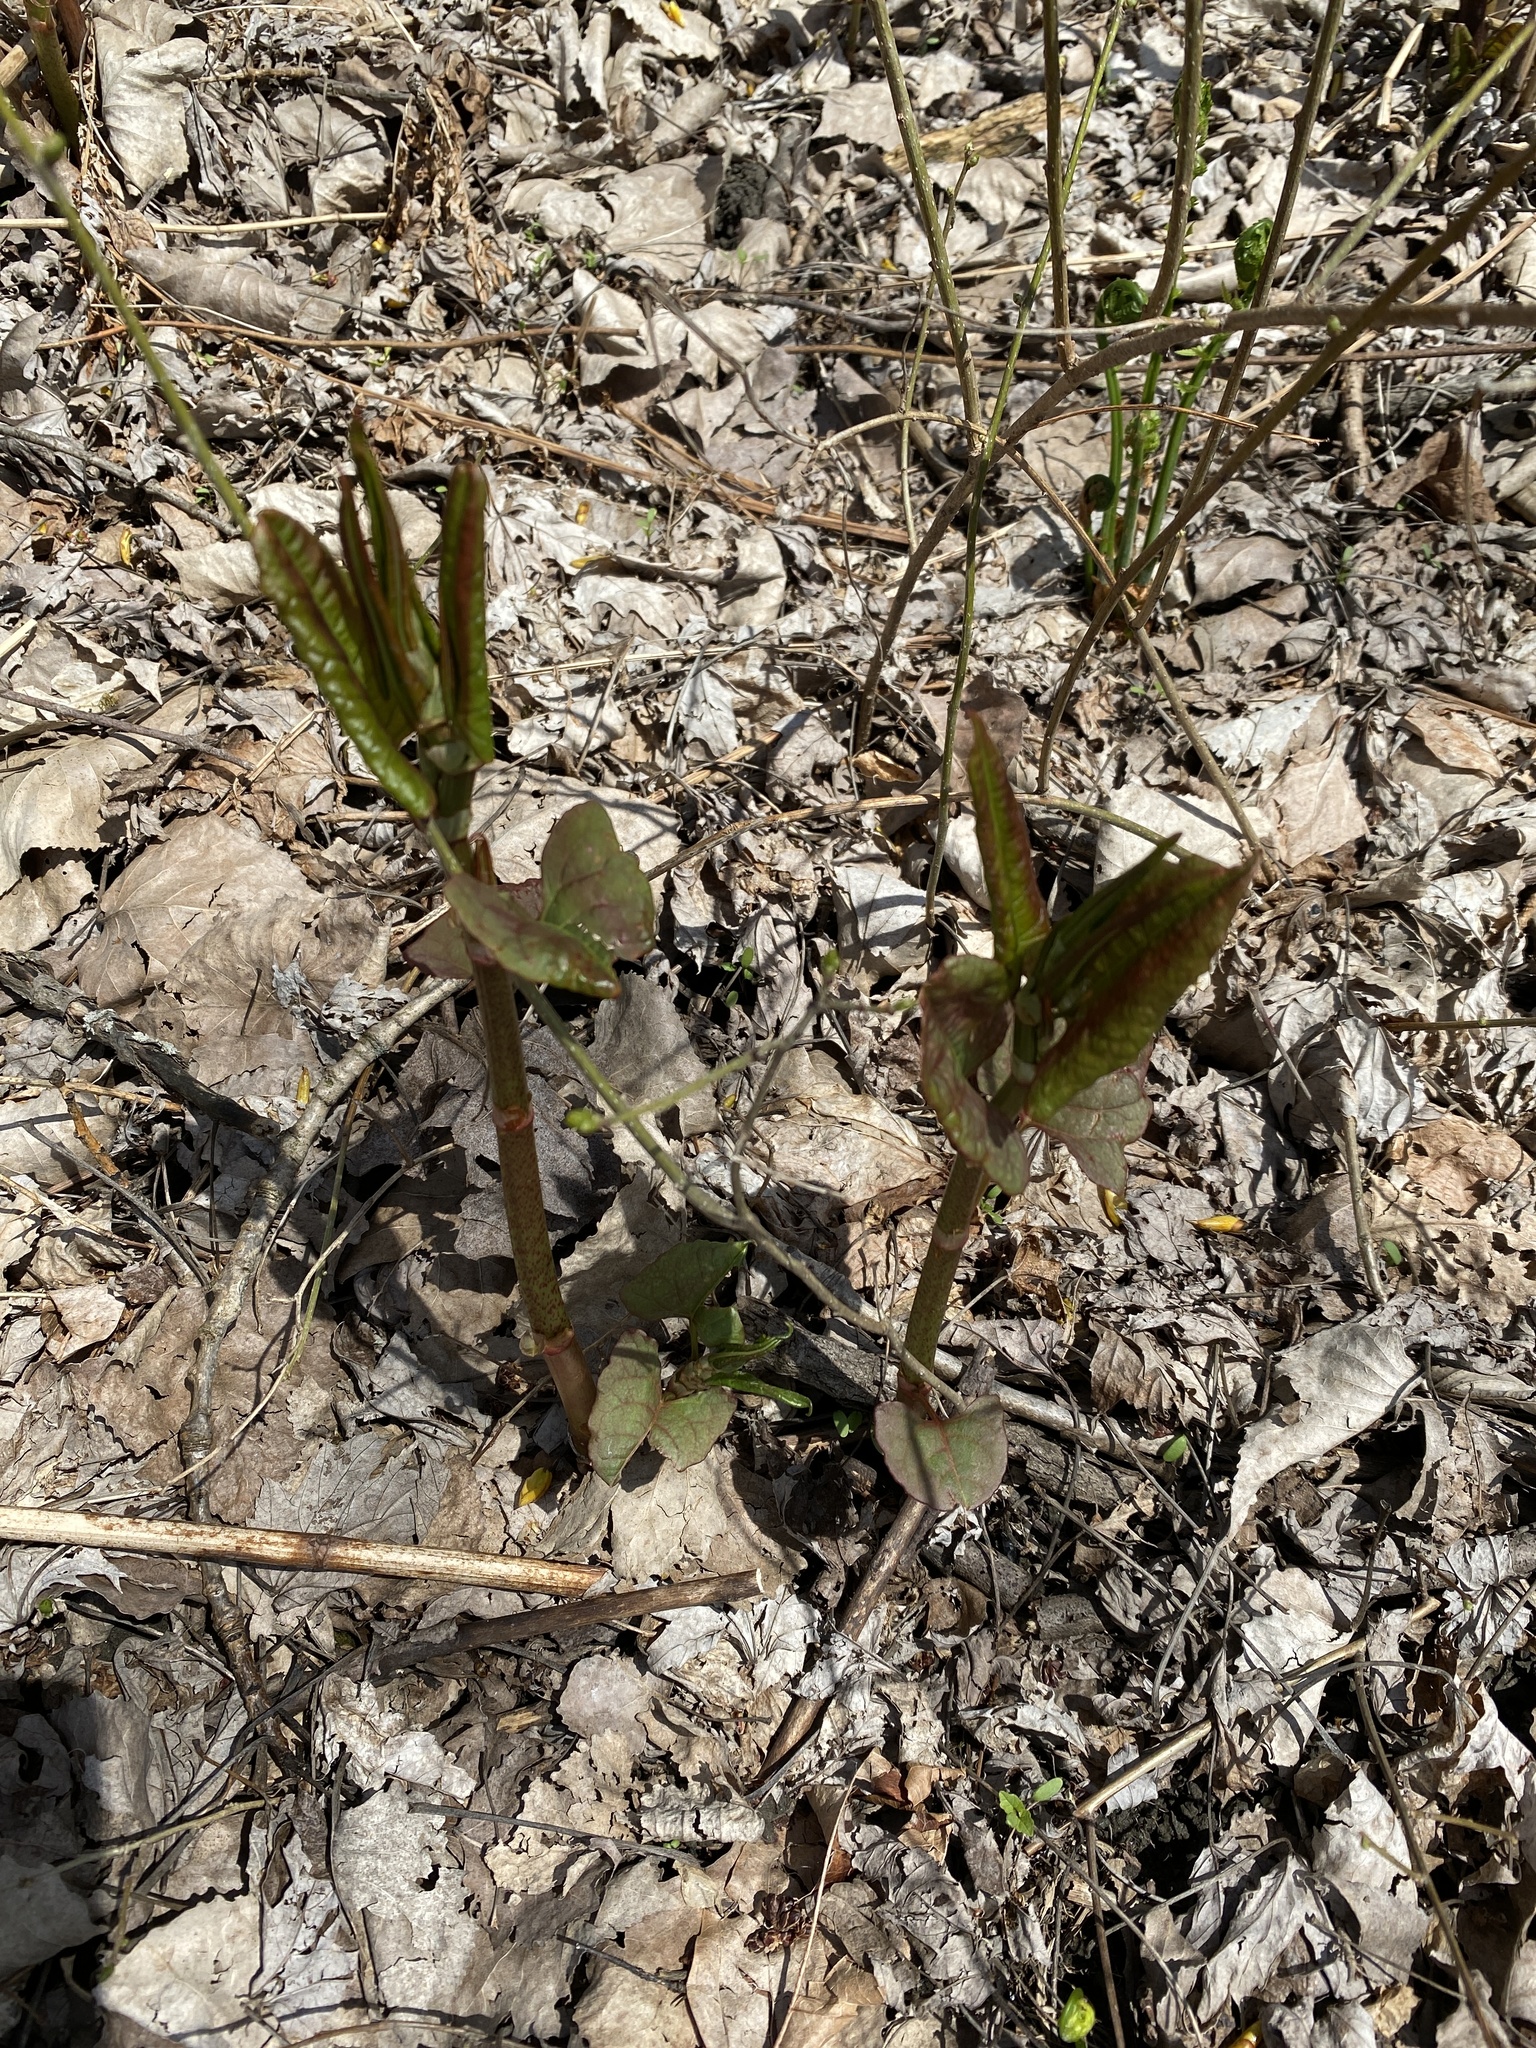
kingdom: Plantae
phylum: Tracheophyta
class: Magnoliopsida
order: Caryophyllales
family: Polygonaceae
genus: Reynoutria
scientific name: Reynoutria japonica
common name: Japanese knotweed
